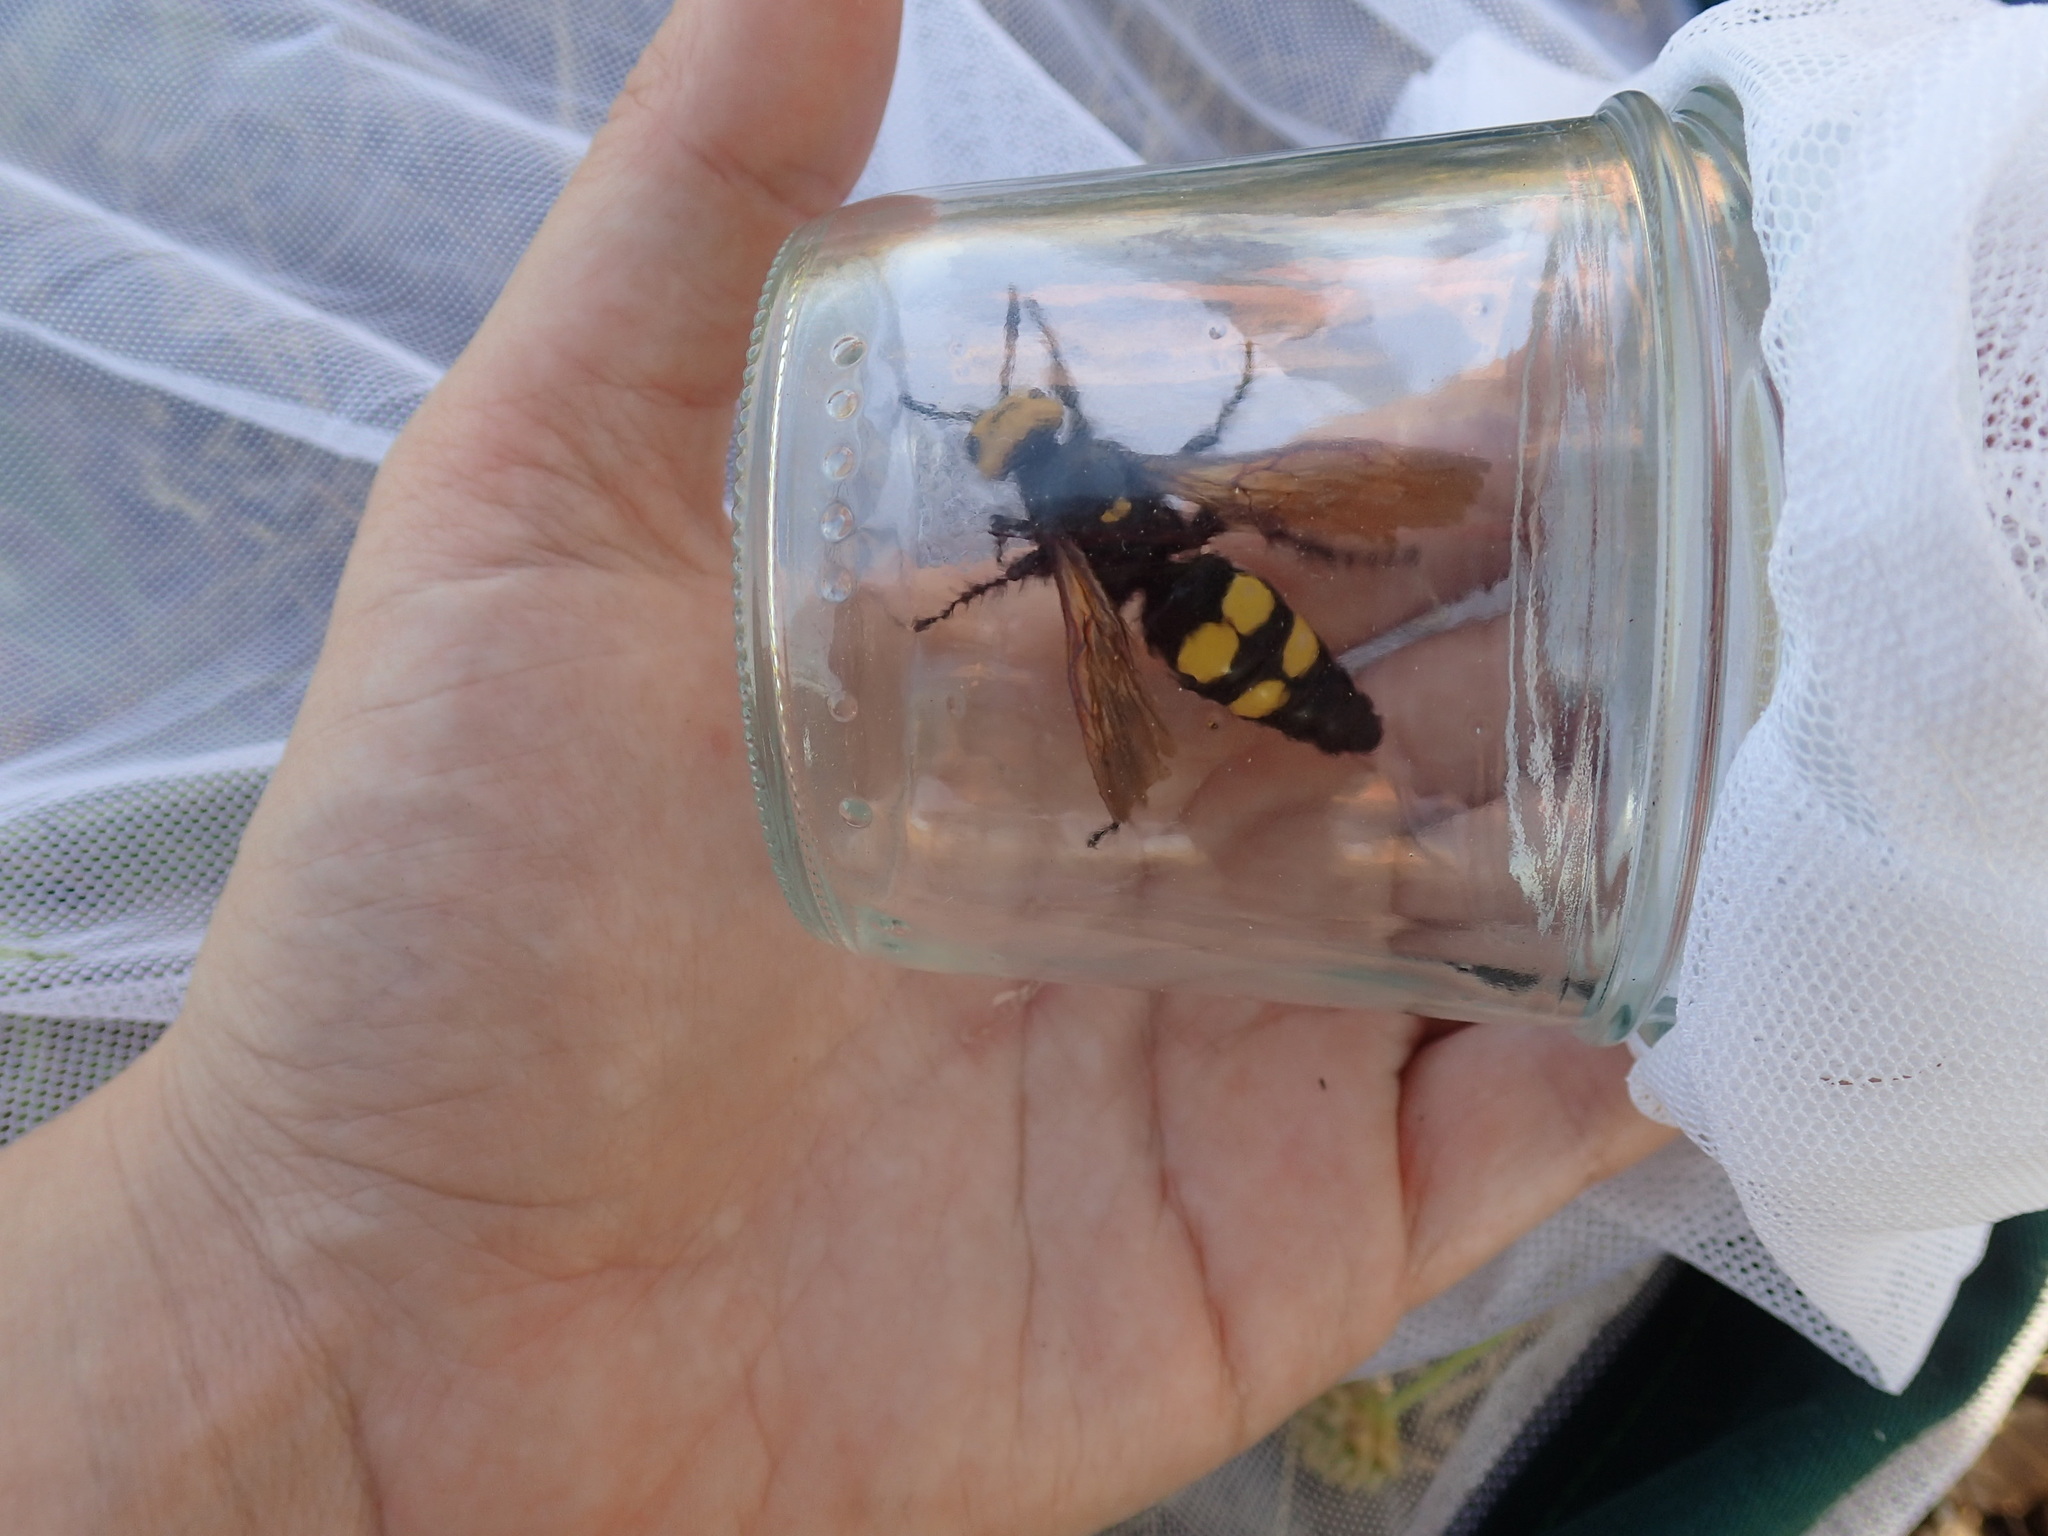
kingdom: Animalia
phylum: Arthropoda
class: Insecta
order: Hymenoptera
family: Scoliidae
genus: Megascolia
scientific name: Megascolia maculata
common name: Mammoth wasp
